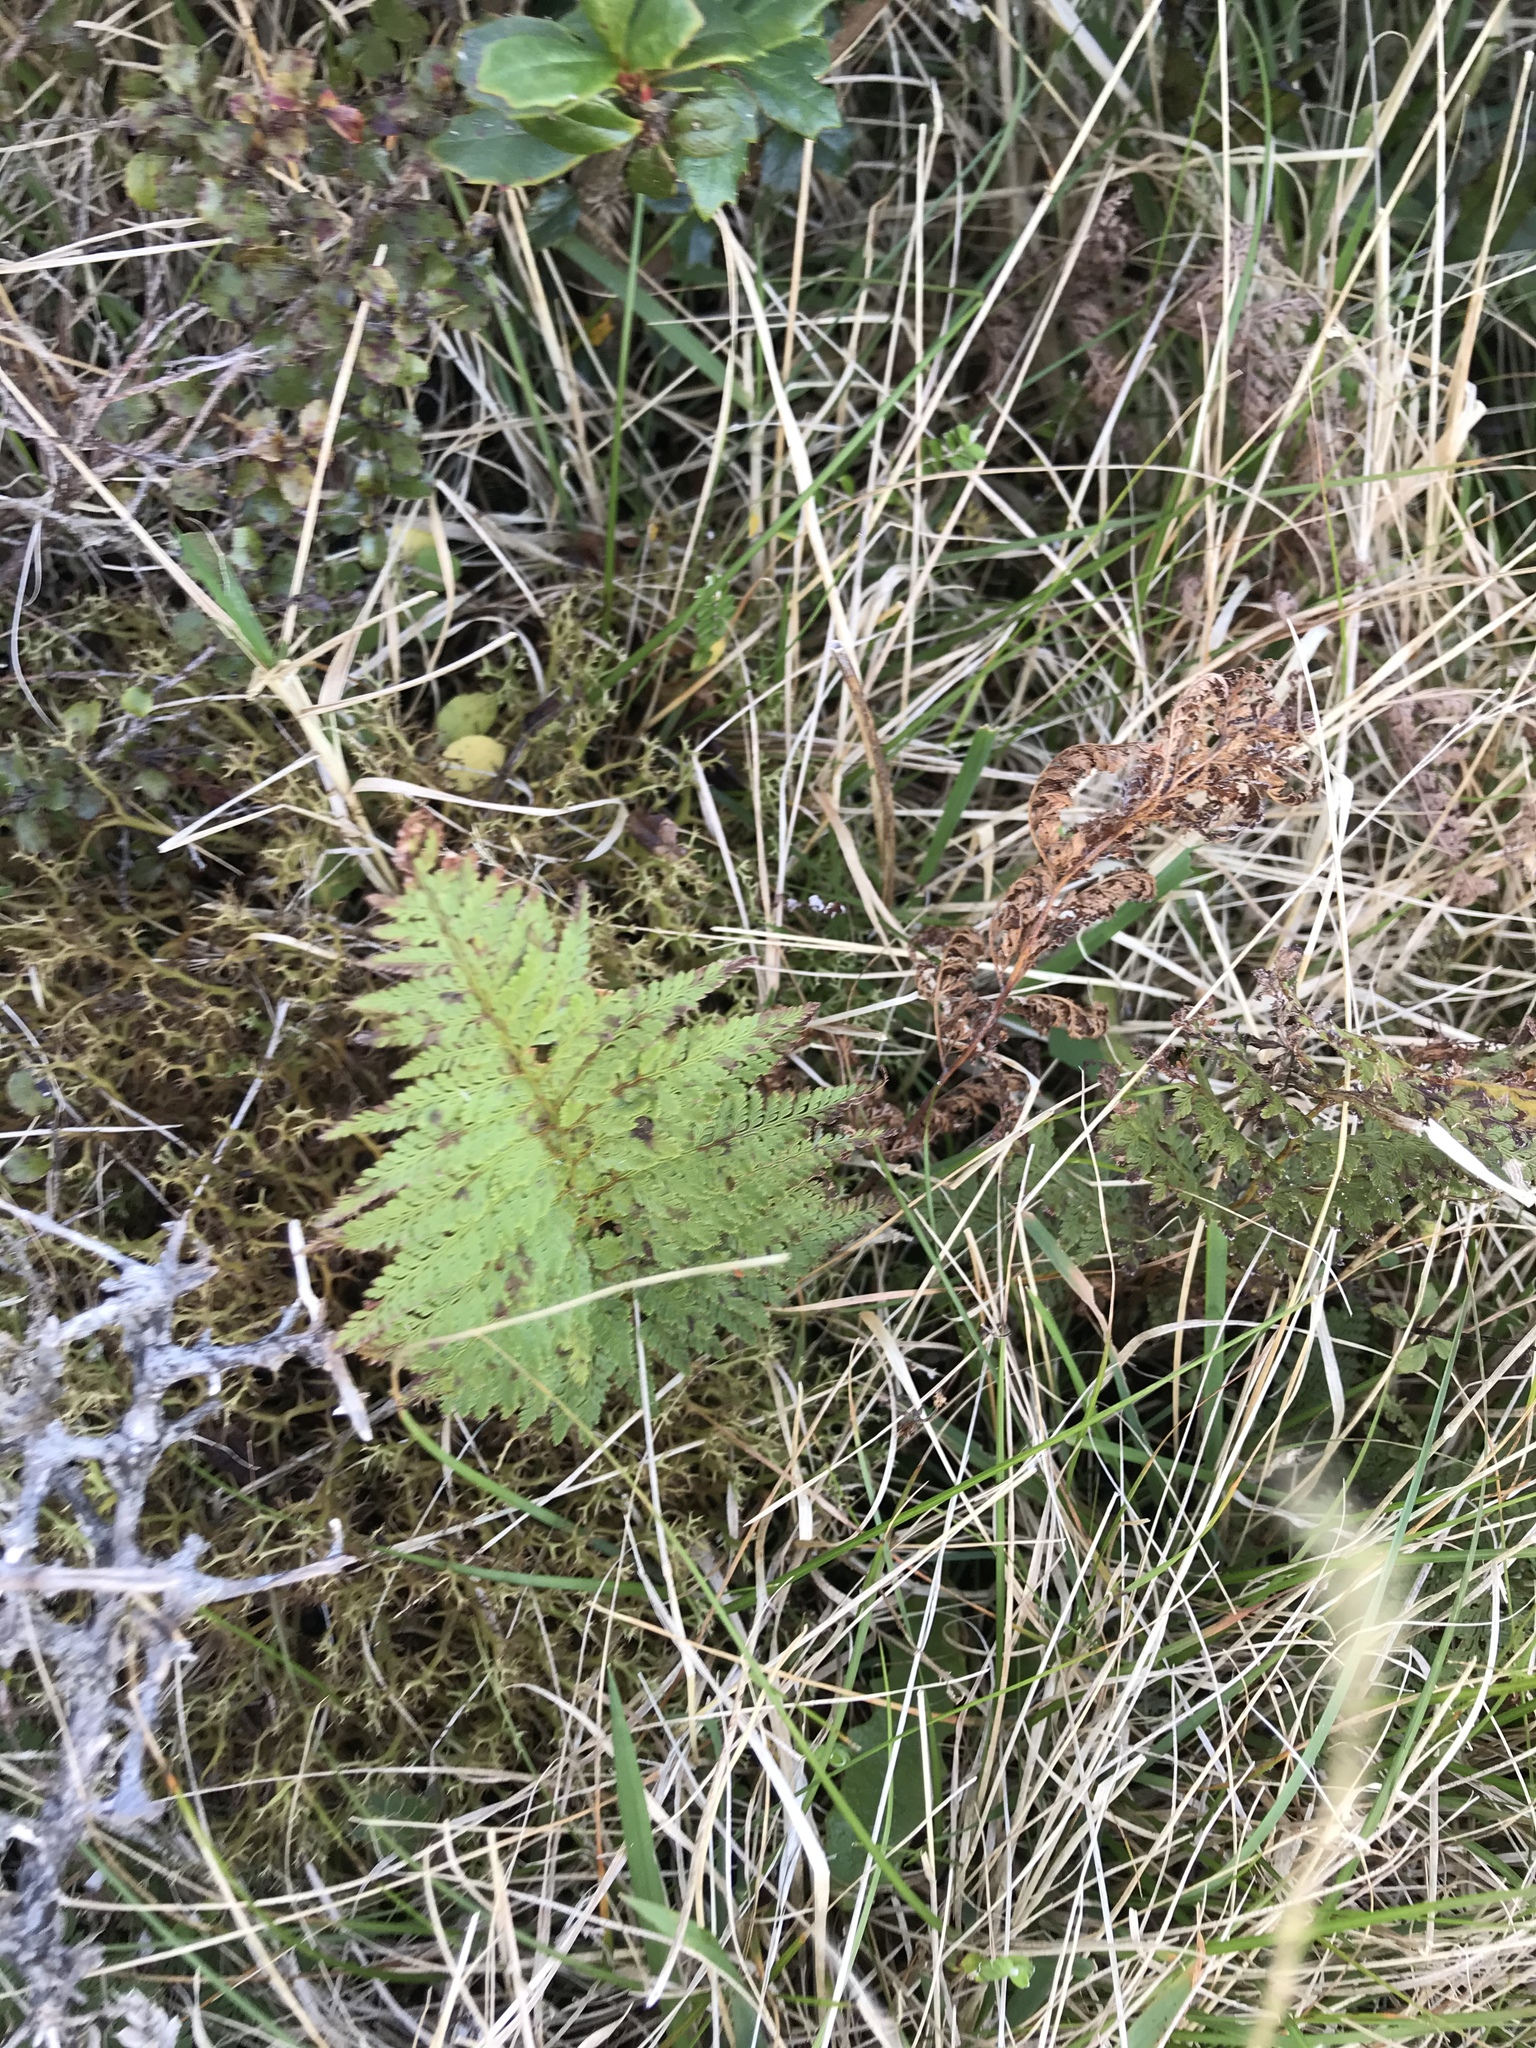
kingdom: Plantae
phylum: Tracheophyta
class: Polypodiopsida
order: Polypodiales
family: Dennstaedtiaceae
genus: Paesia
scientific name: Paesia scaberula
